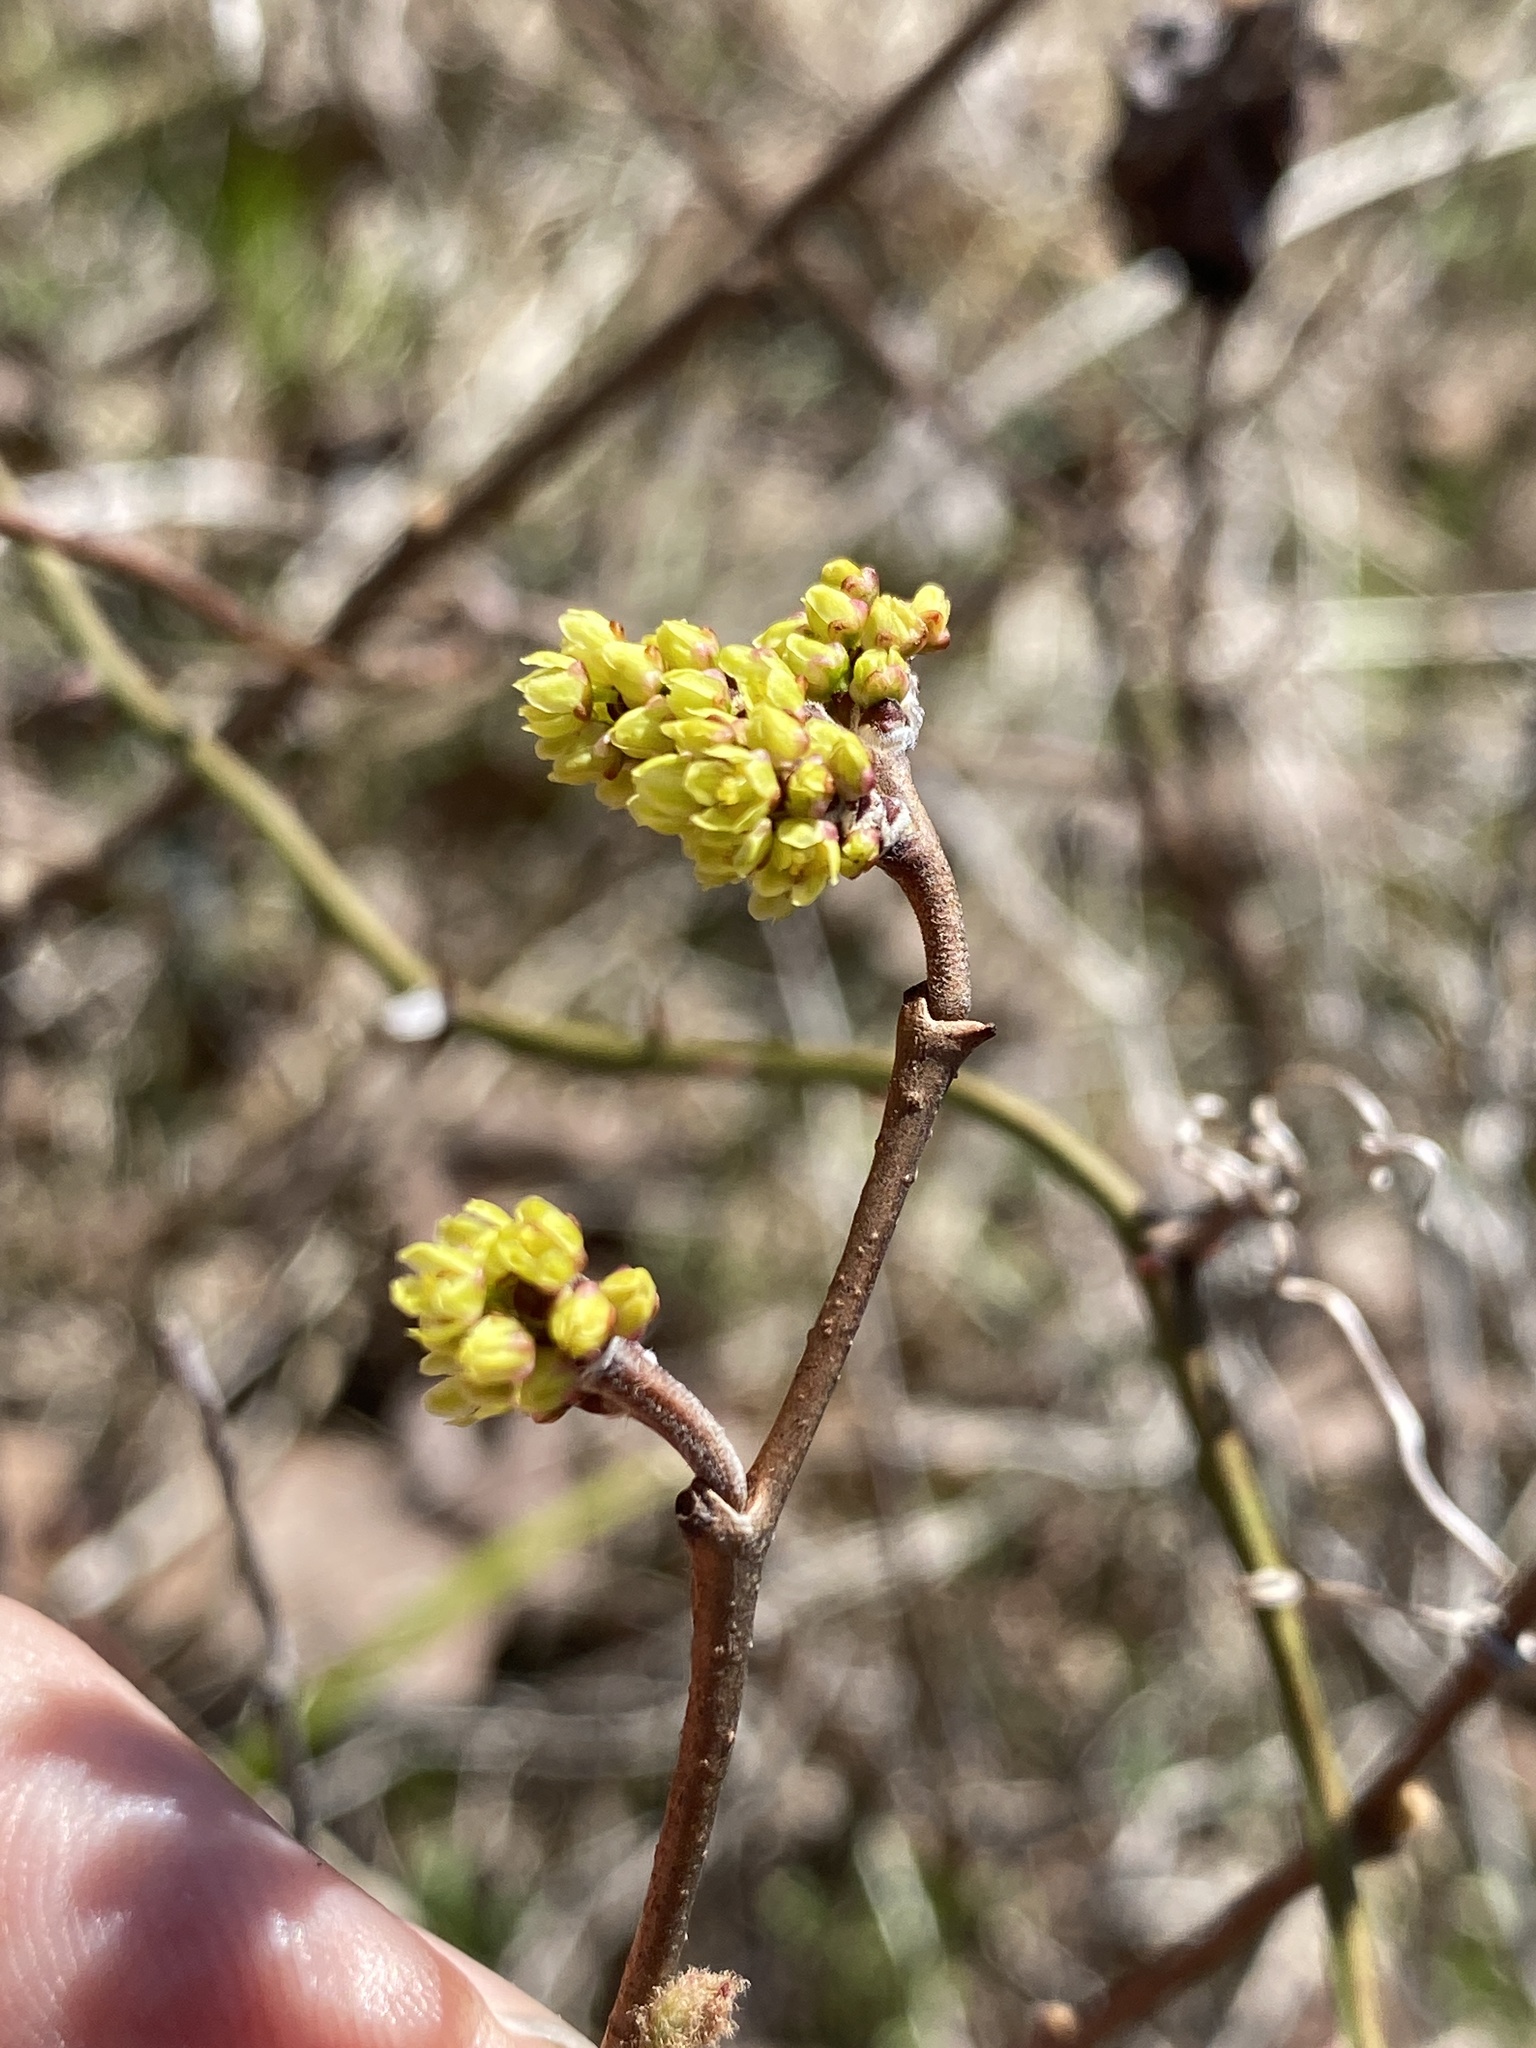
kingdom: Plantae
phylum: Tracheophyta
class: Magnoliopsida
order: Sapindales
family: Anacardiaceae
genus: Rhus
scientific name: Rhus aromatica
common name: Aromatic sumac
